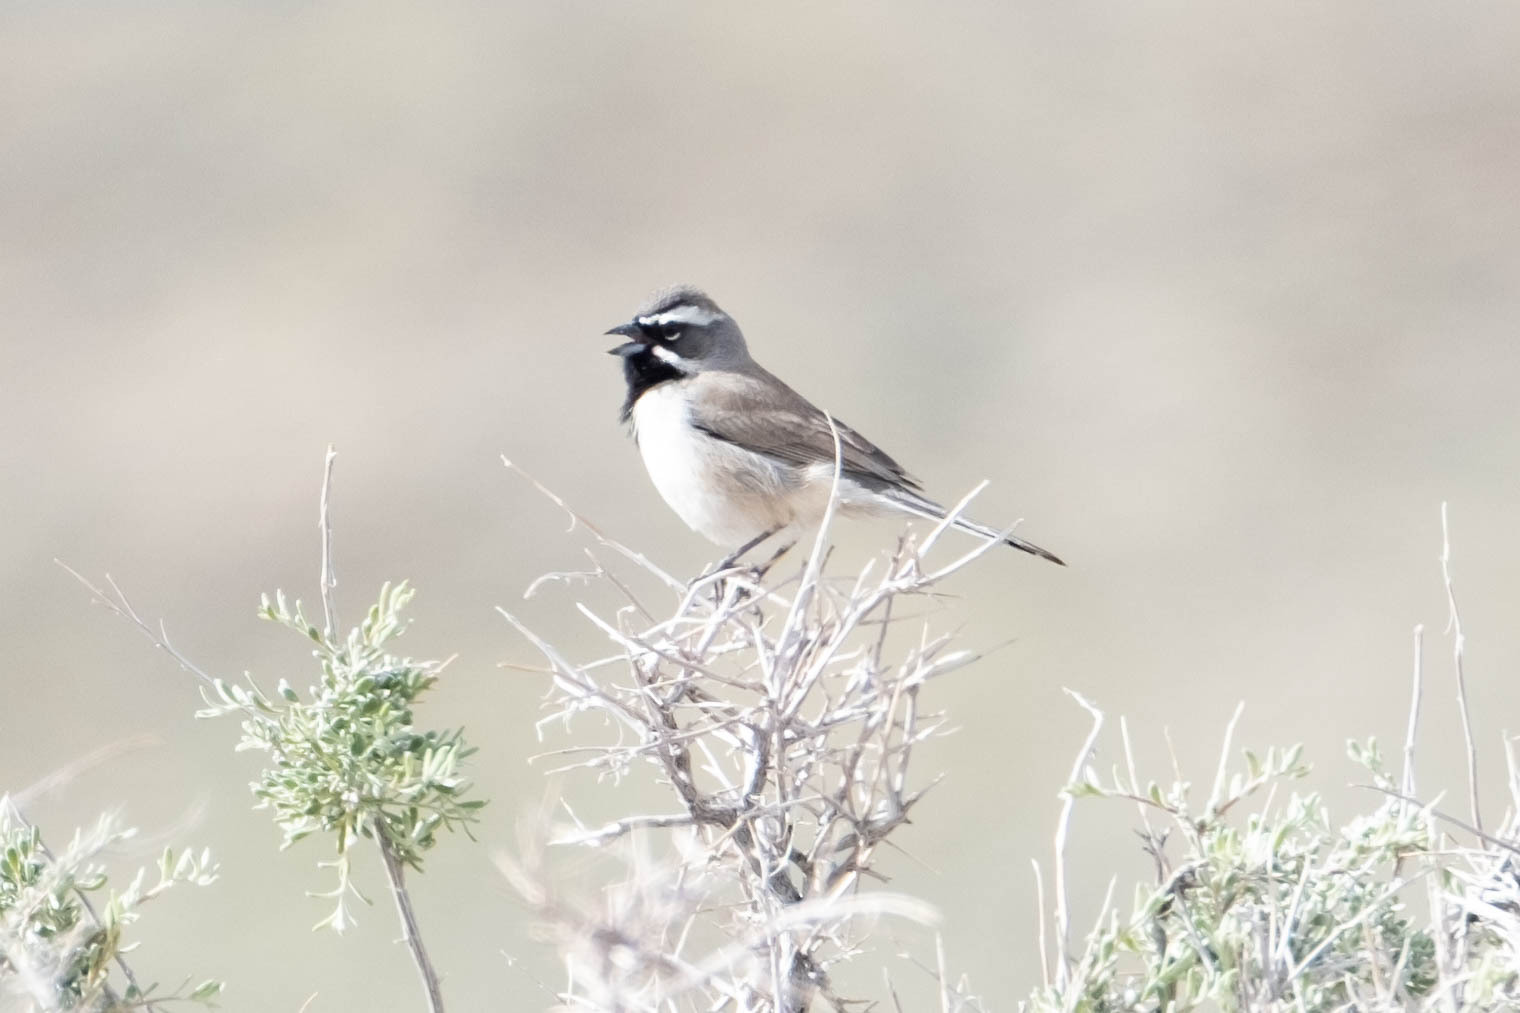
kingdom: Animalia
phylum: Chordata
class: Aves
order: Passeriformes
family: Passerellidae
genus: Amphispiza
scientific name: Amphispiza bilineata
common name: Black-throated sparrow
